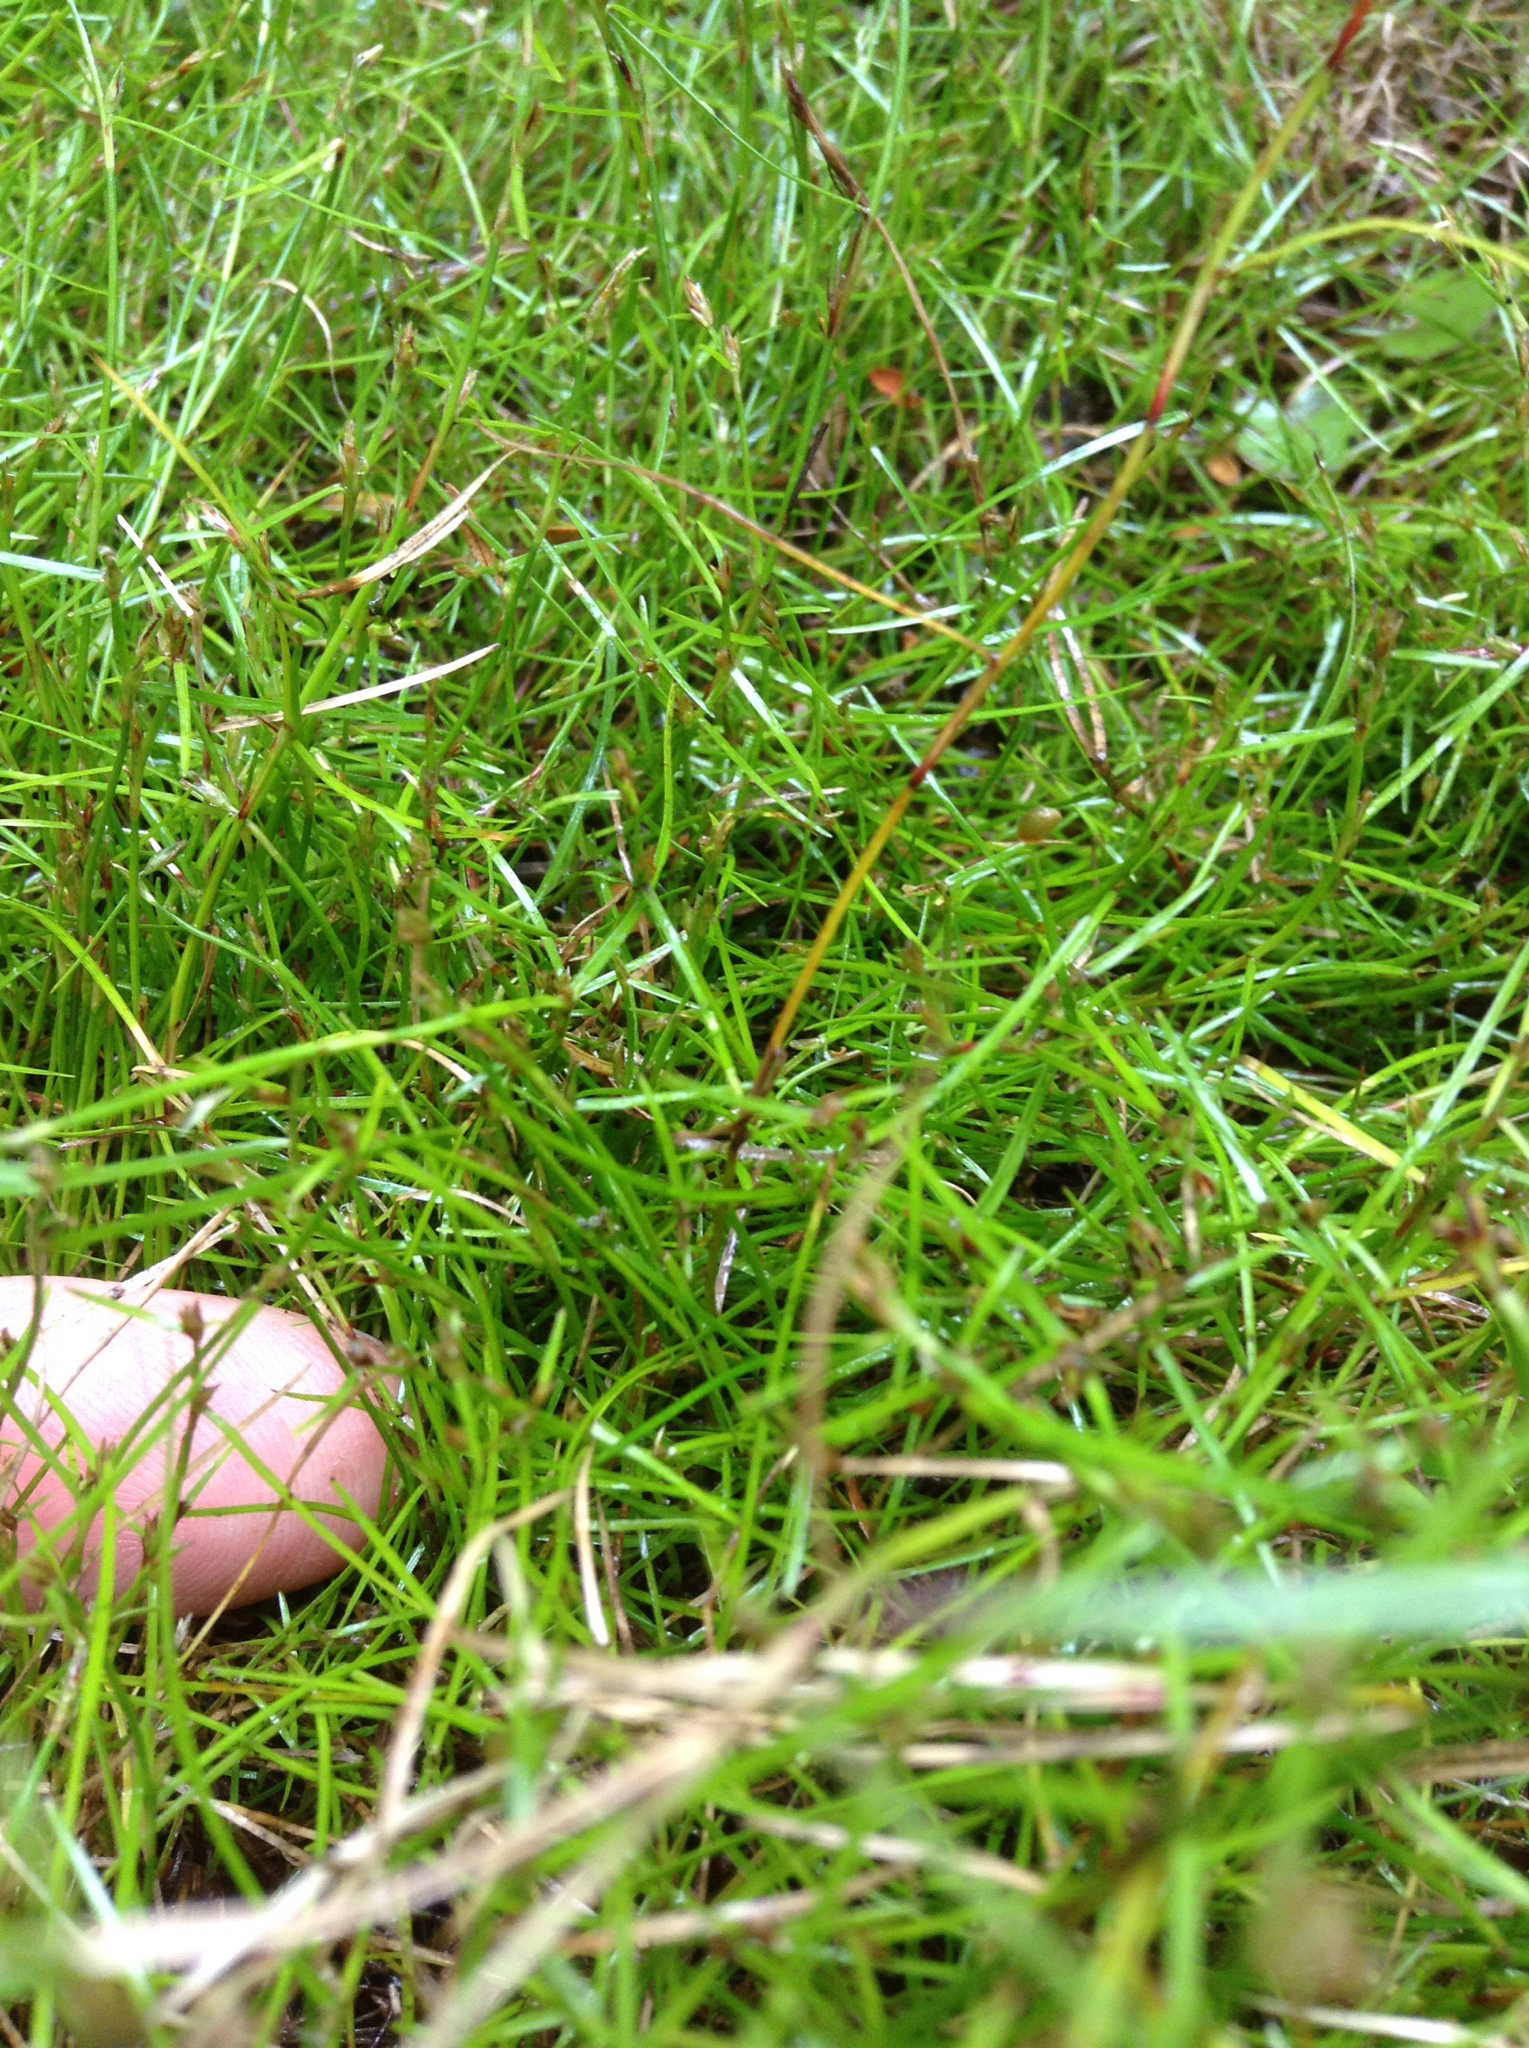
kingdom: Plantae
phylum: Tracheophyta
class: Liliopsida
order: Poales
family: Cyperaceae
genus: Schoenus
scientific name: Schoenus maschalinus
